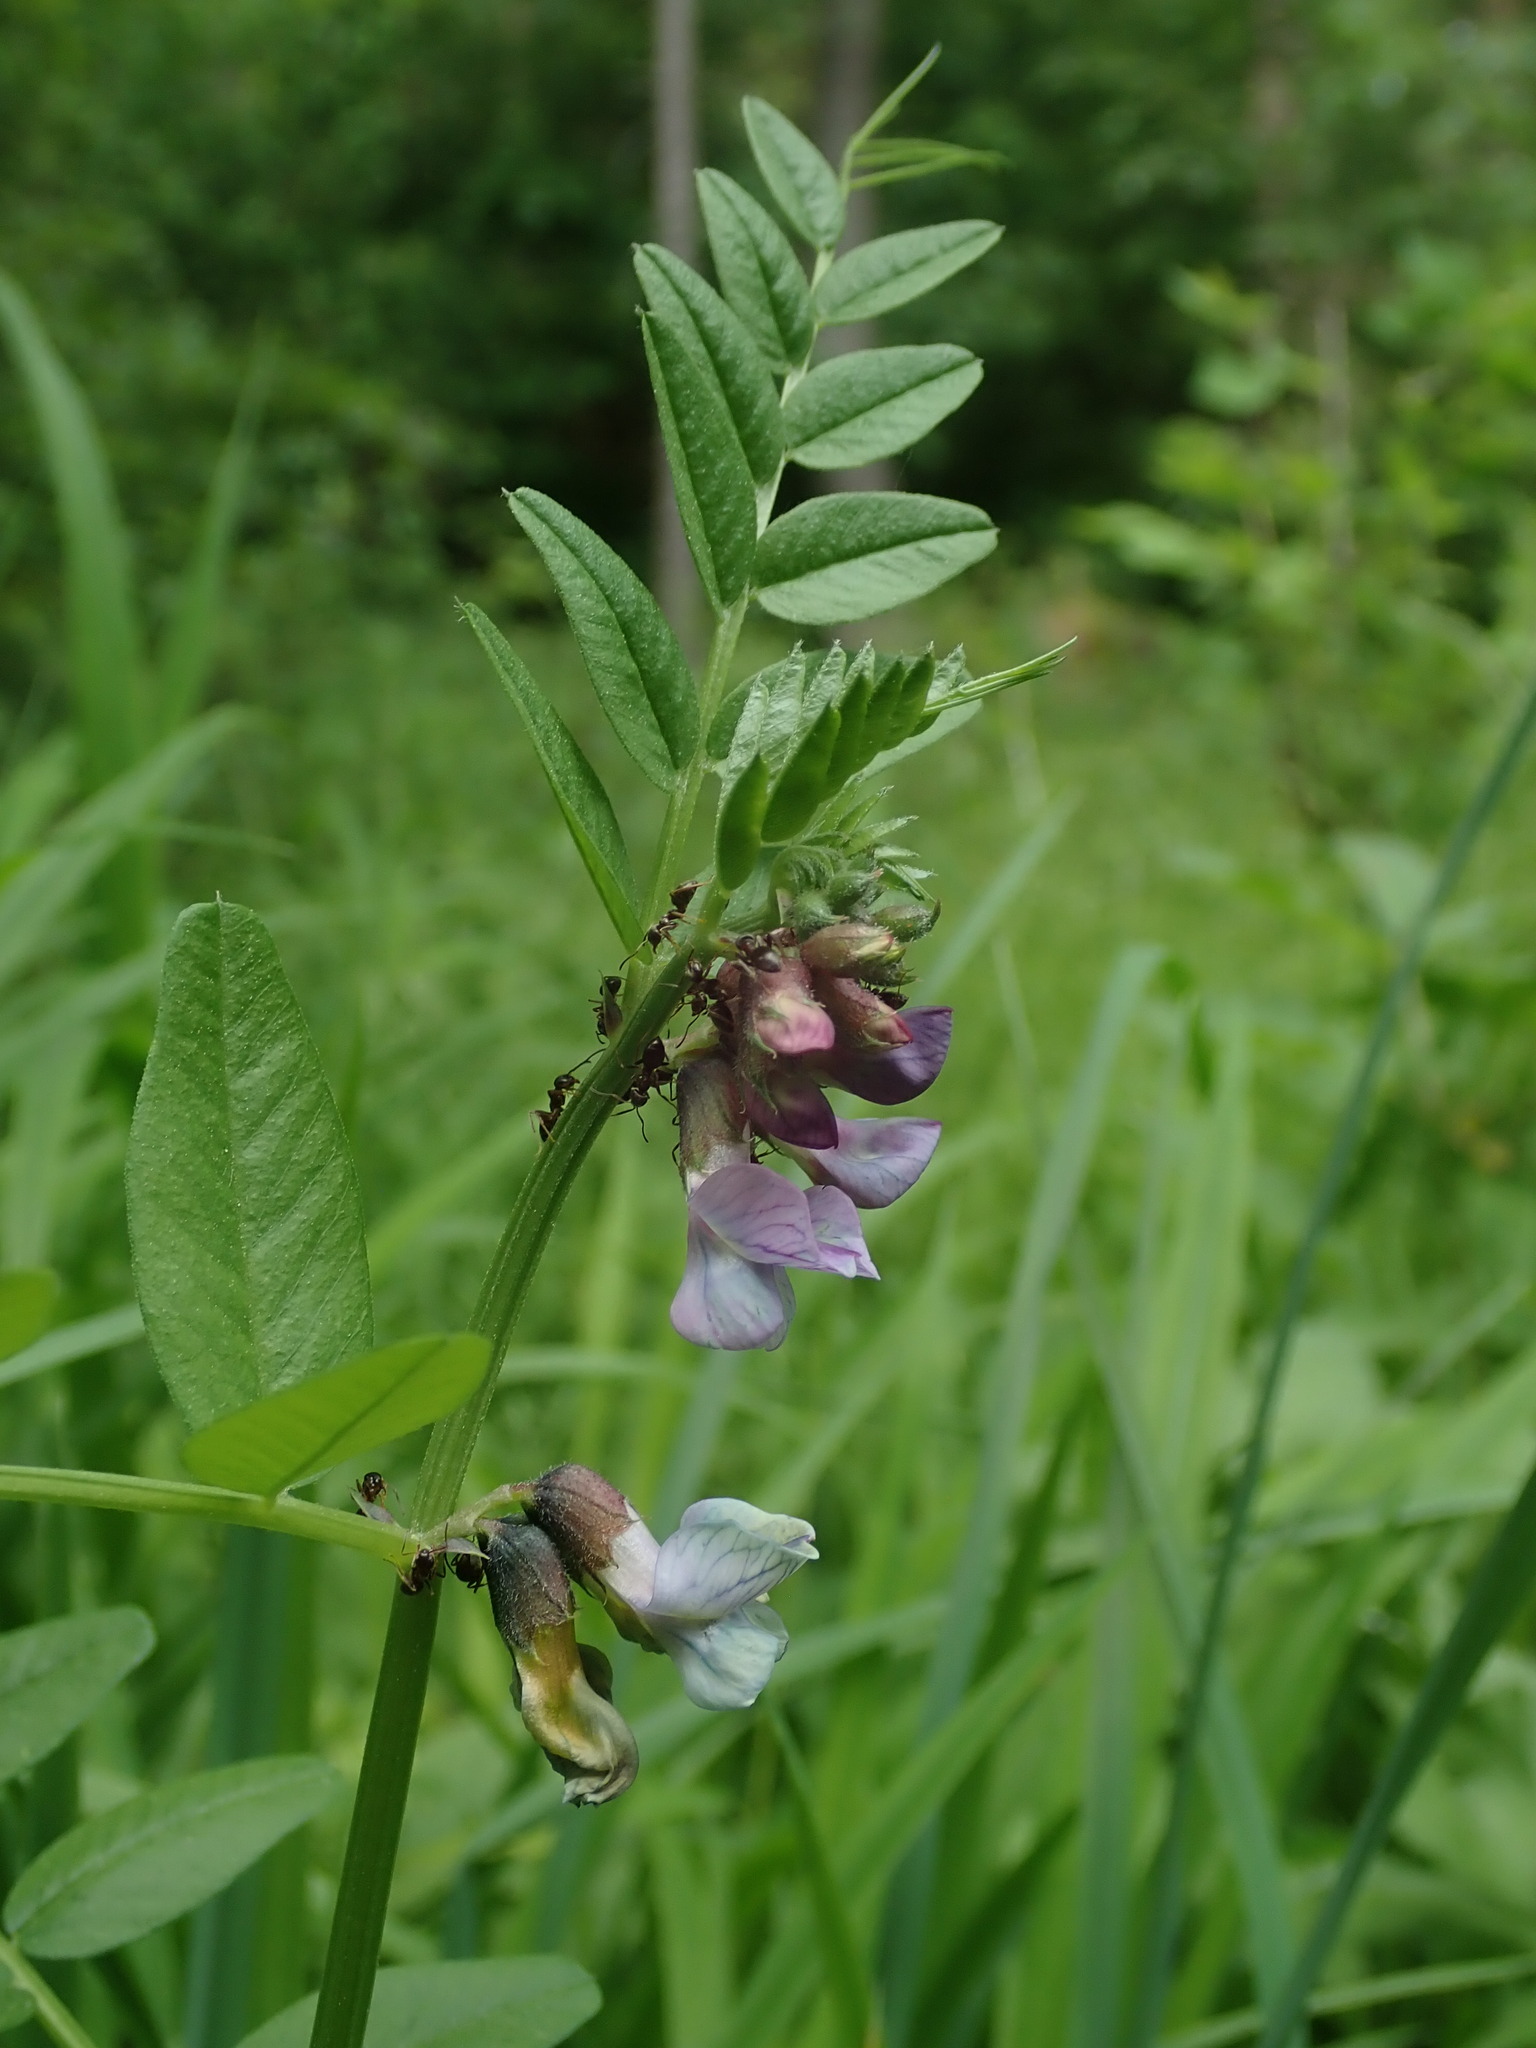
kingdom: Plantae
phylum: Tracheophyta
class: Magnoliopsida
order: Fabales
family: Fabaceae
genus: Vicia
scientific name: Vicia sepium
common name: Bush vetch
